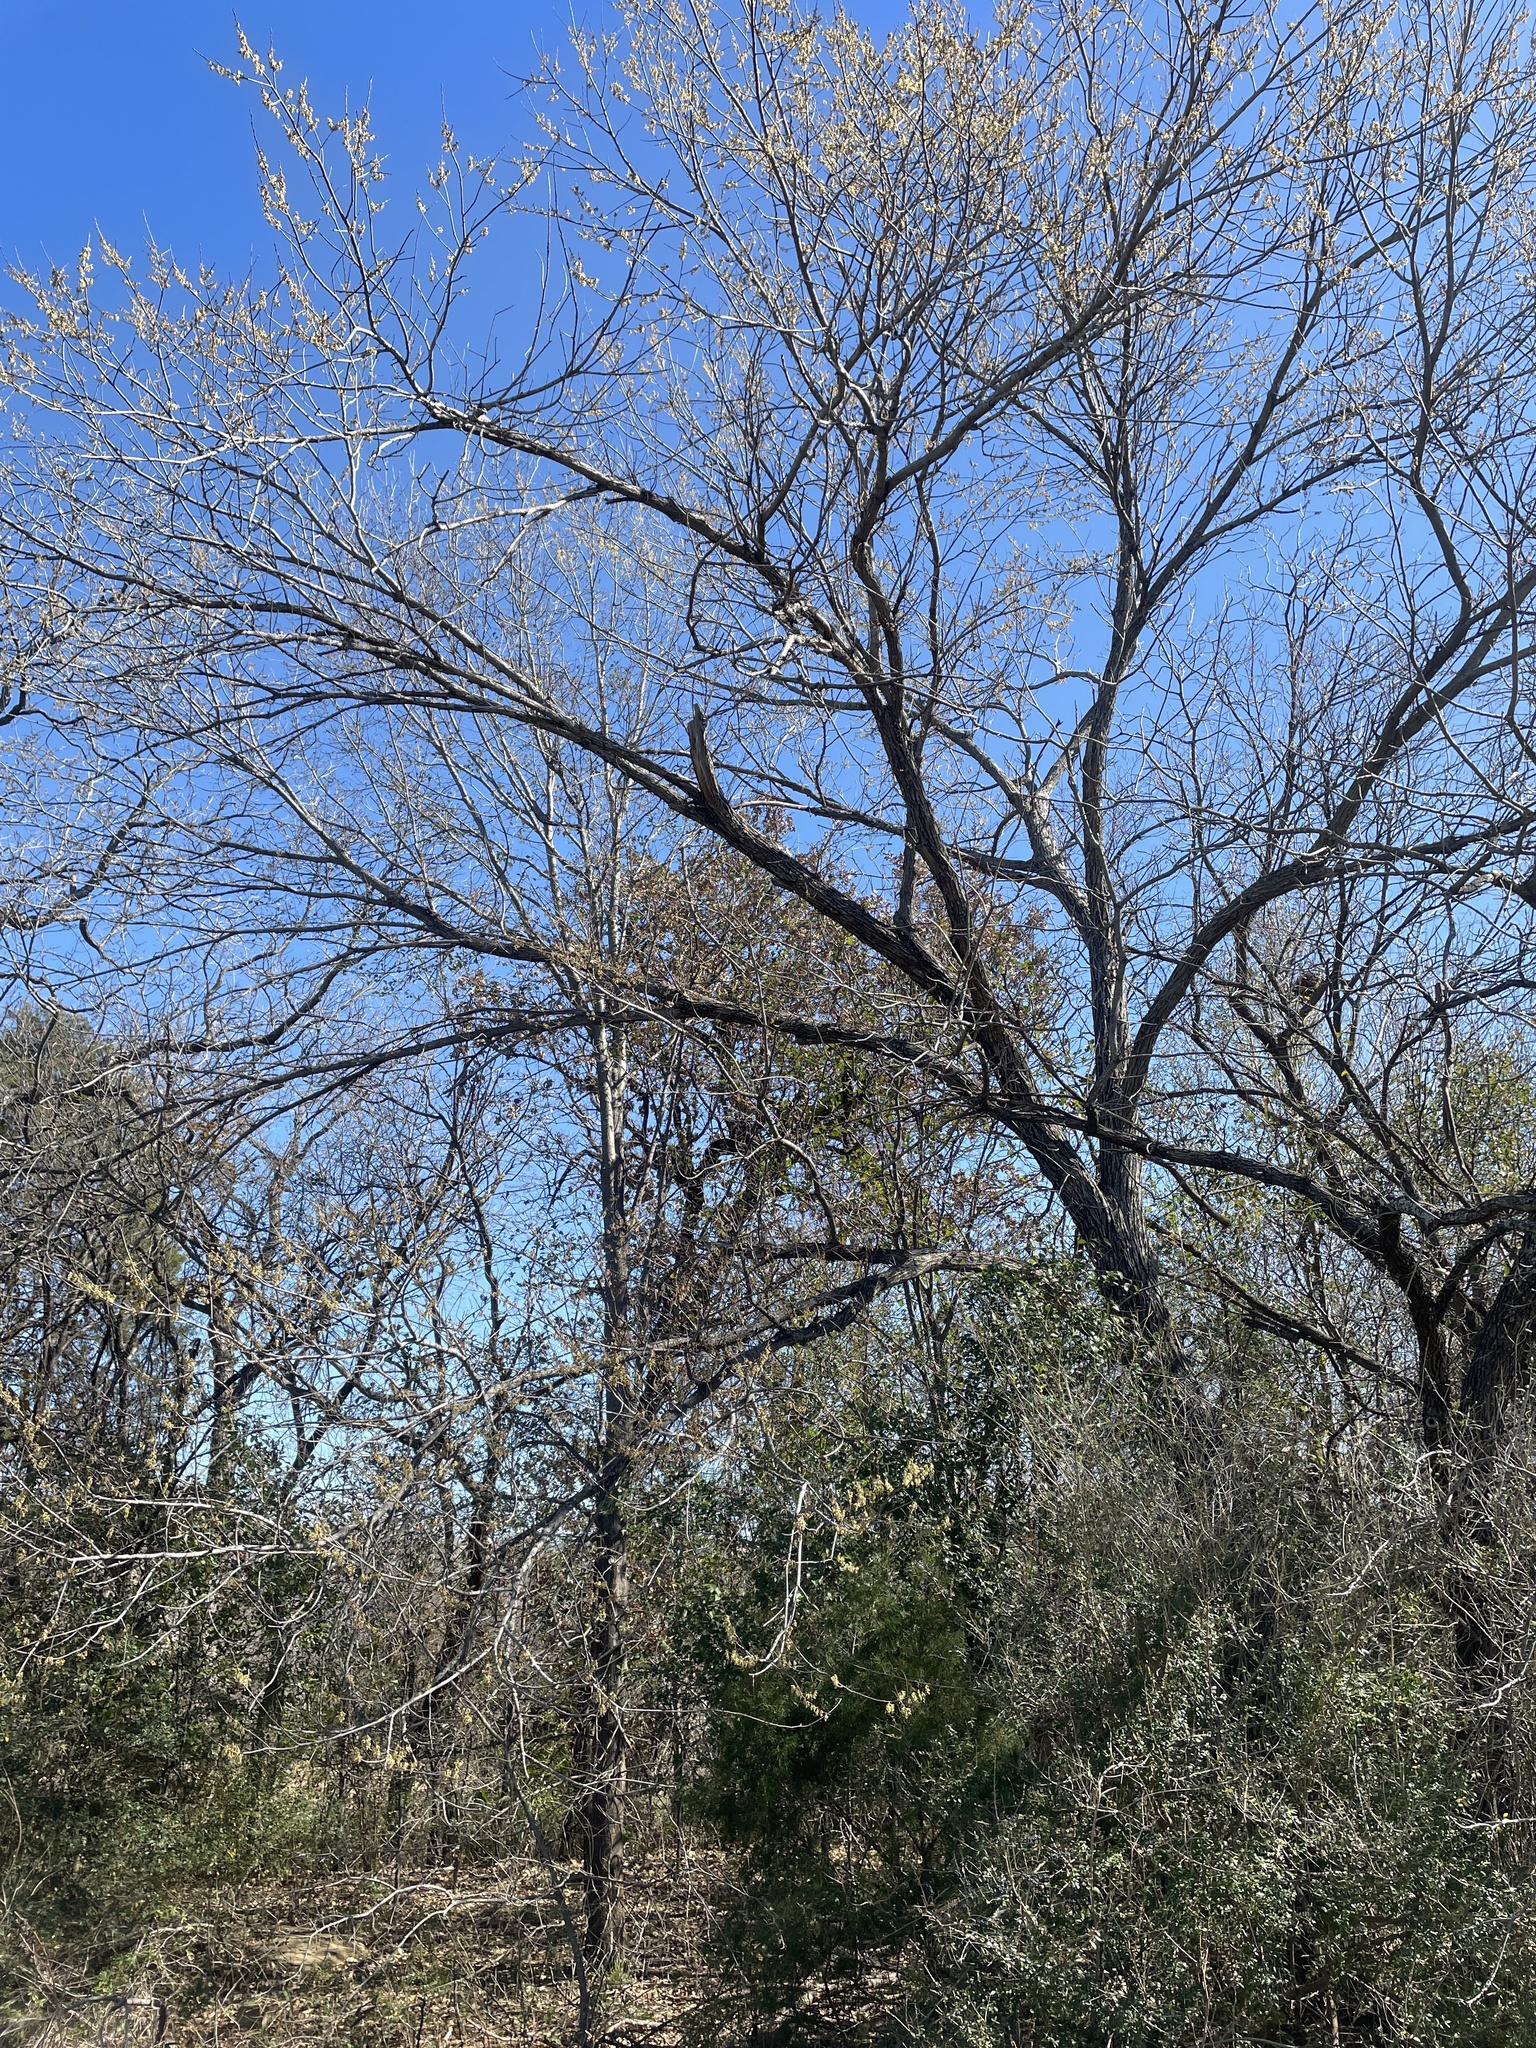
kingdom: Plantae
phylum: Tracheophyta
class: Magnoliopsida
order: Rosales
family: Ulmaceae
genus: Ulmus
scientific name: Ulmus americana
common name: American elm
